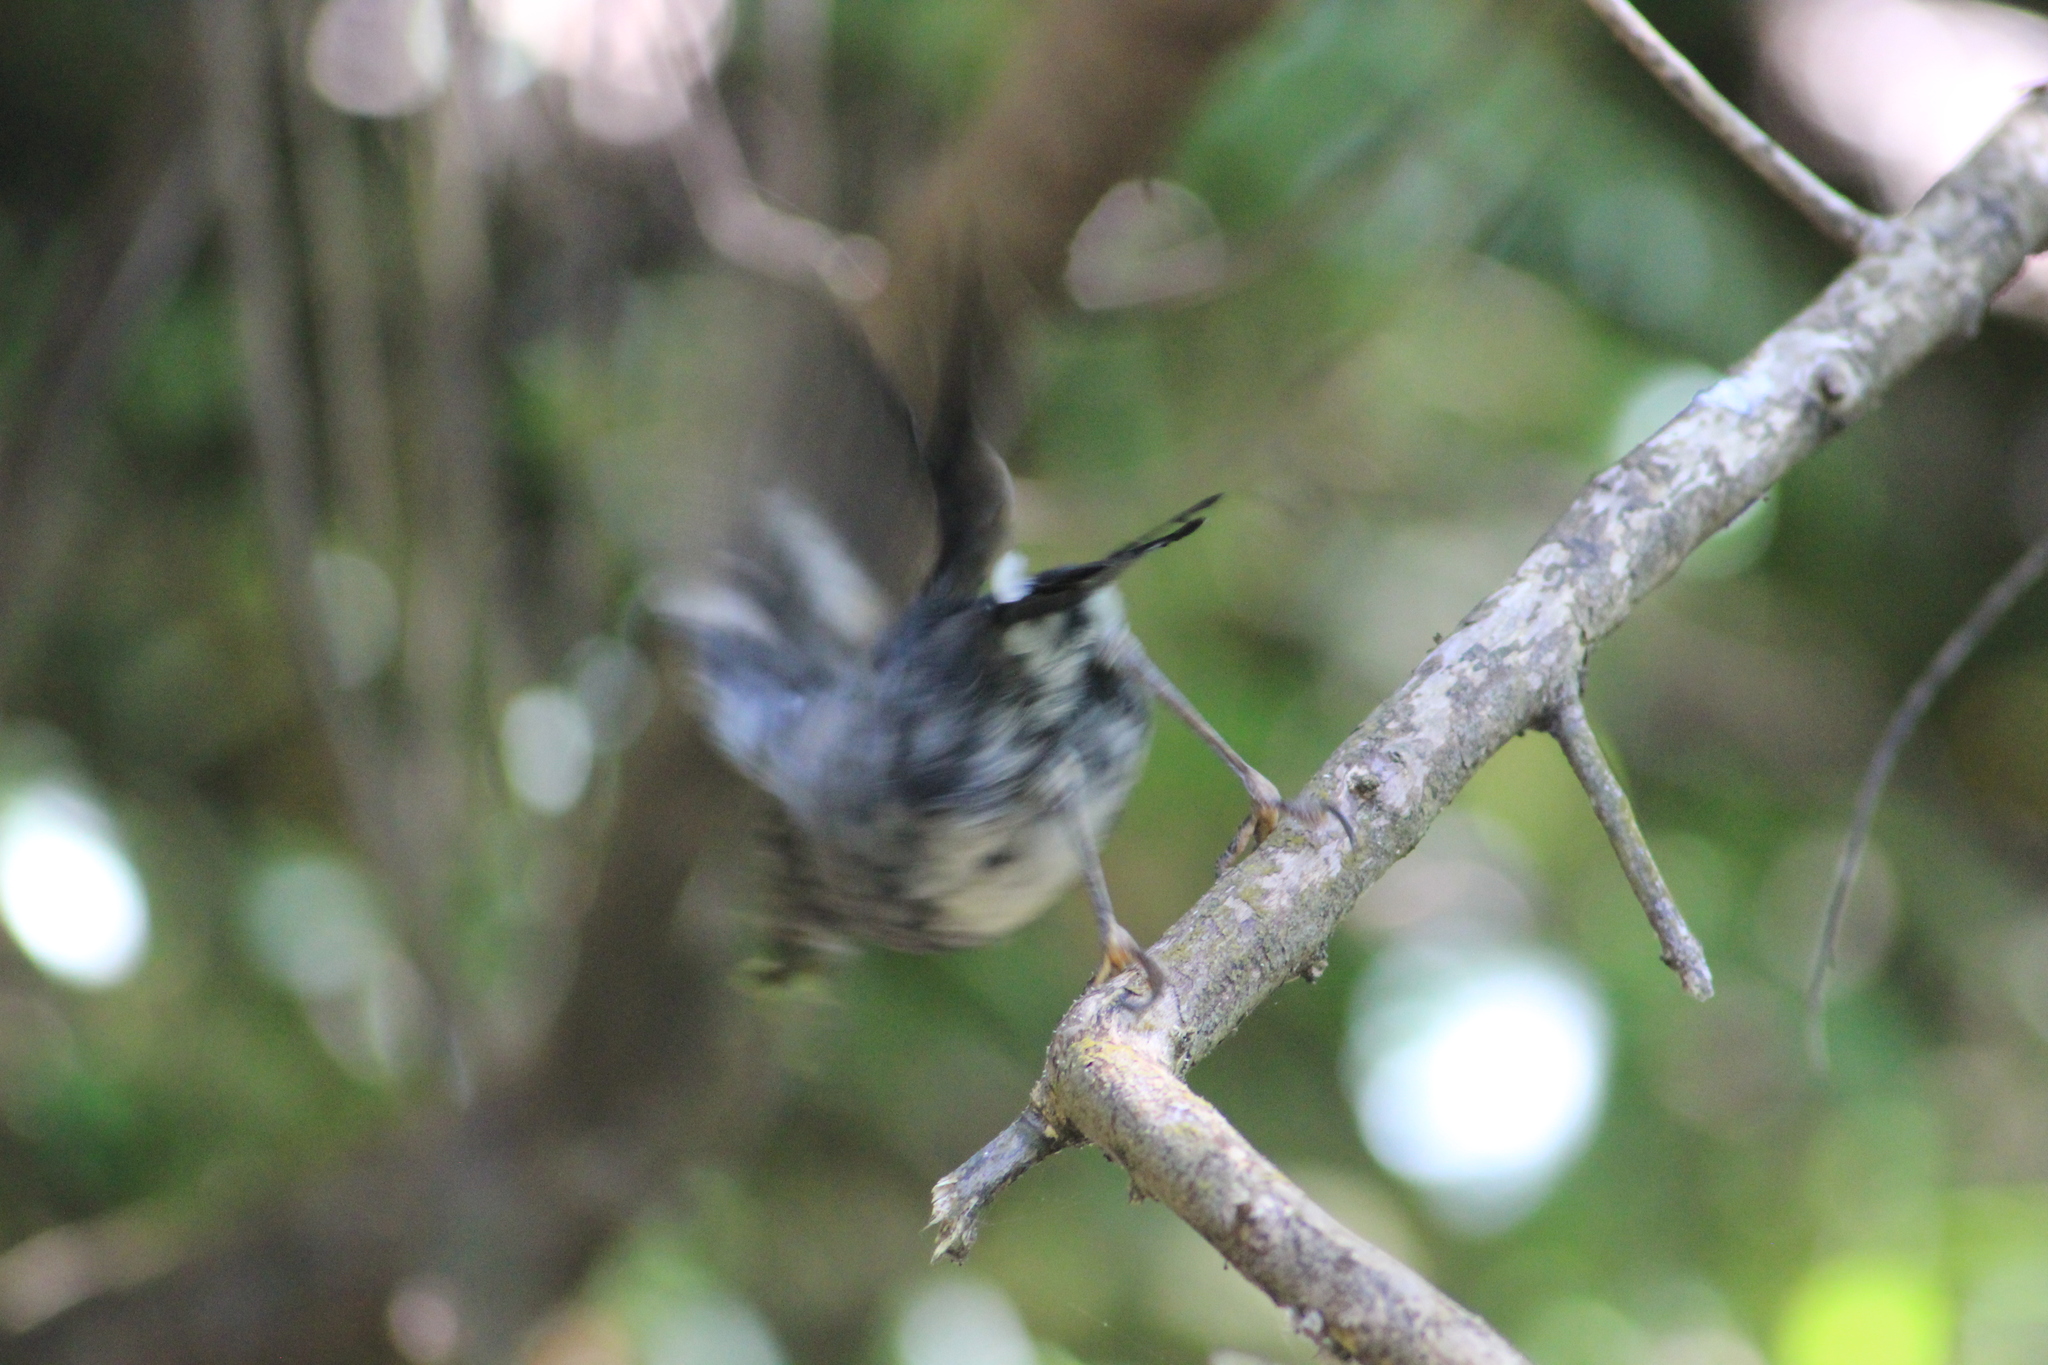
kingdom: Animalia
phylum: Chordata
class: Aves
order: Passeriformes
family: Petroicidae
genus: Petroica
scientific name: Petroica australis
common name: New zealand robin
